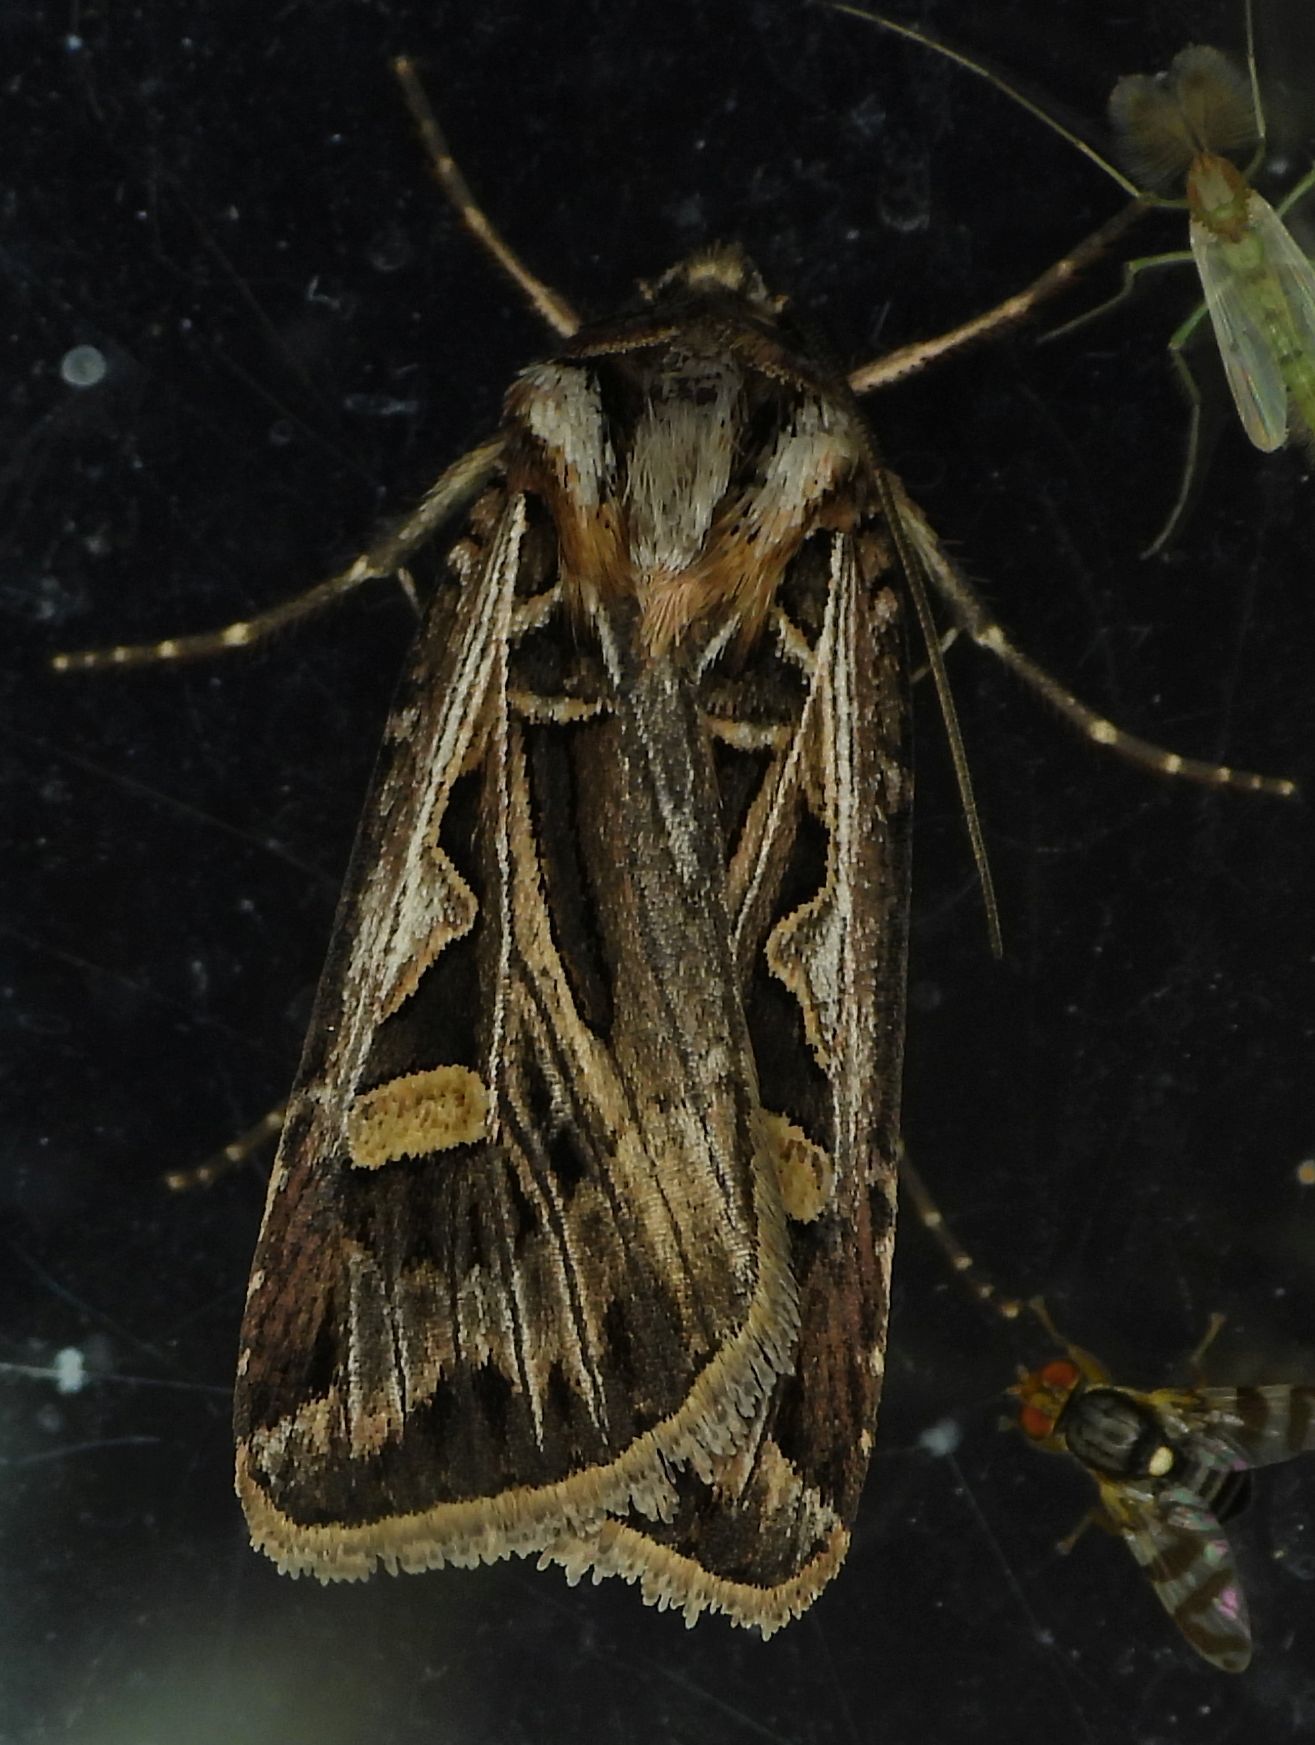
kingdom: Animalia
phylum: Arthropoda
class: Insecta
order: Lepidoptera
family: Noctuidae
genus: Feltia
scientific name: Feltia jaculifera
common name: Dingy cutworm moth
